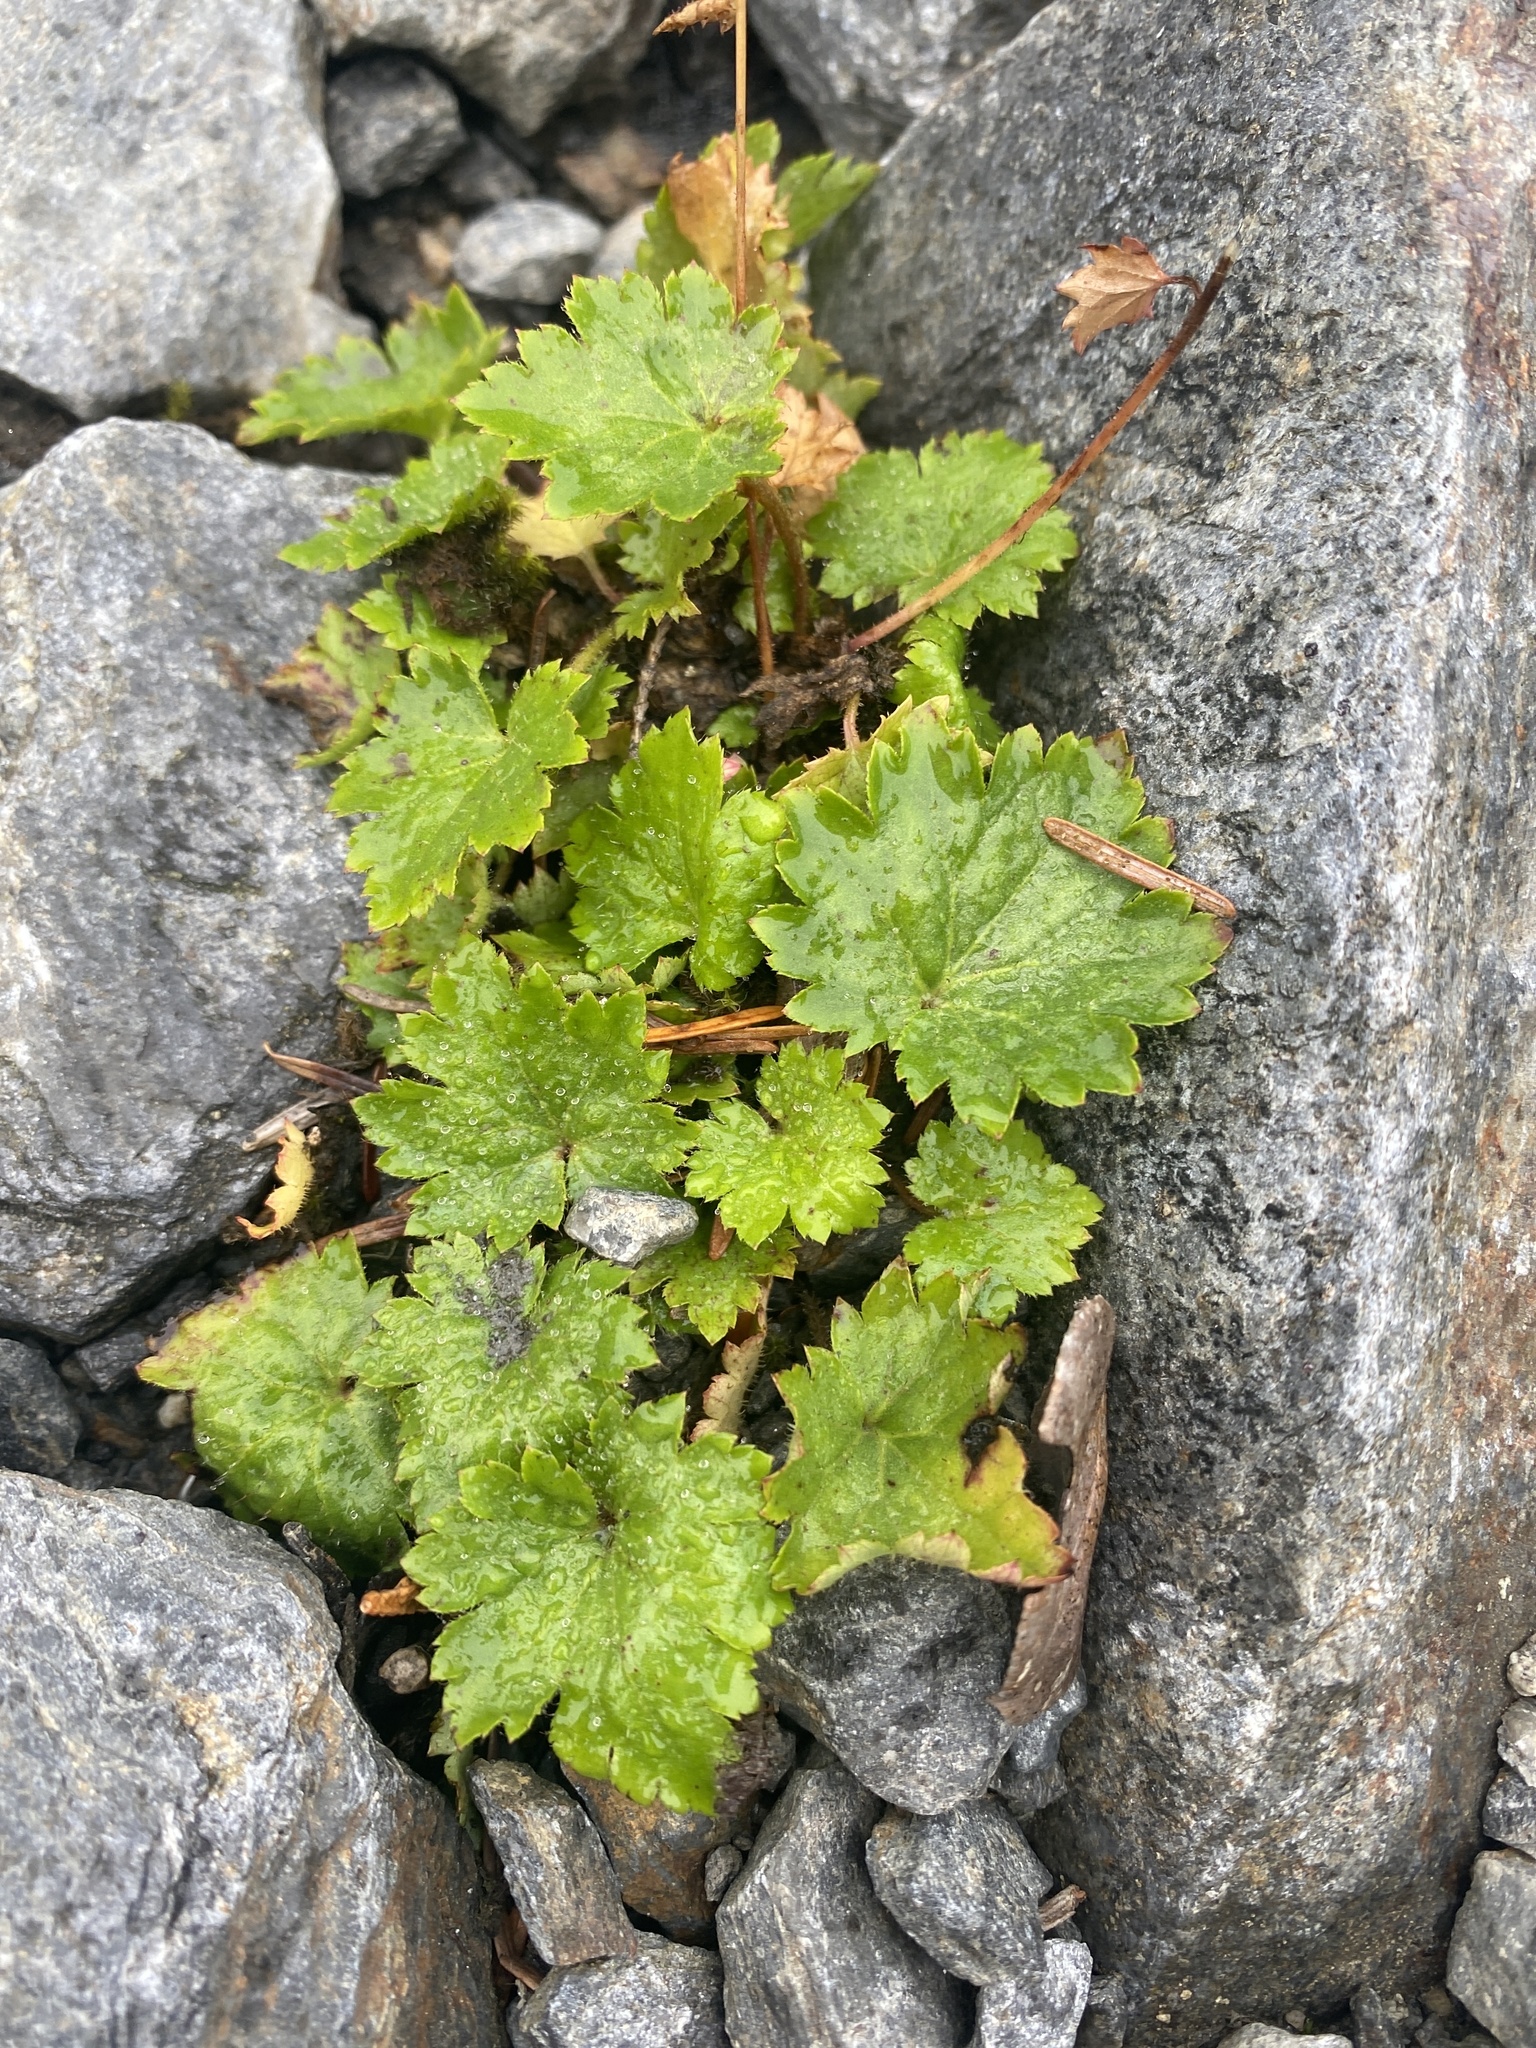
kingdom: Plantae
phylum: Tracheophyta
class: Magnoliopsida
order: Saxifragales
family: Saxifragaceae
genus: Boykinia
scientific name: Boykinia occidentalis
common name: Coast boykinia
